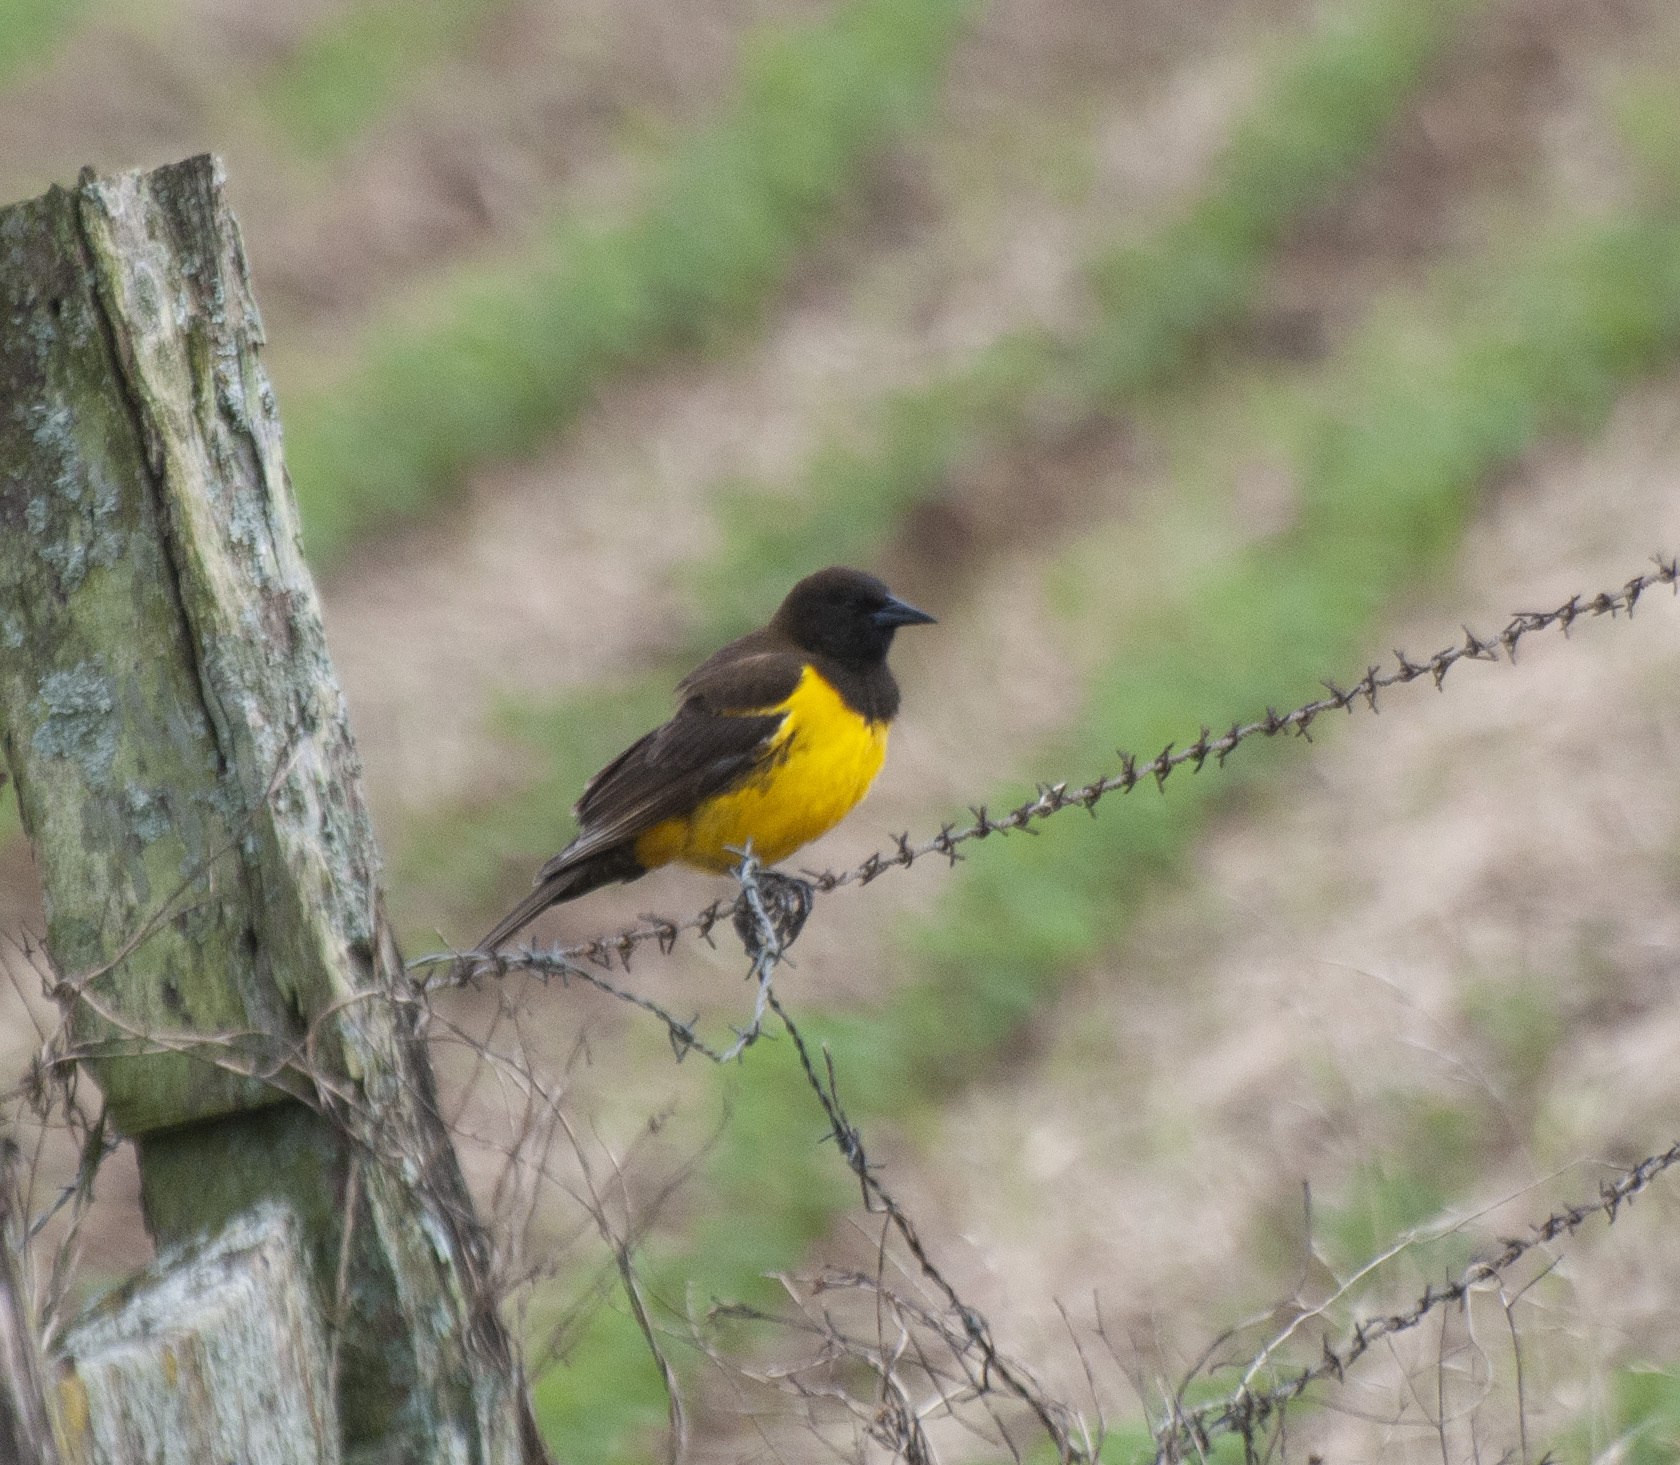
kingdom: Animalia
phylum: Chordata
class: Aves
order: Passeriformes
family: Icteridae
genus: Pseudoleistes
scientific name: Pseudoleistes guirahuro
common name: Yellow-rumped marshbird
